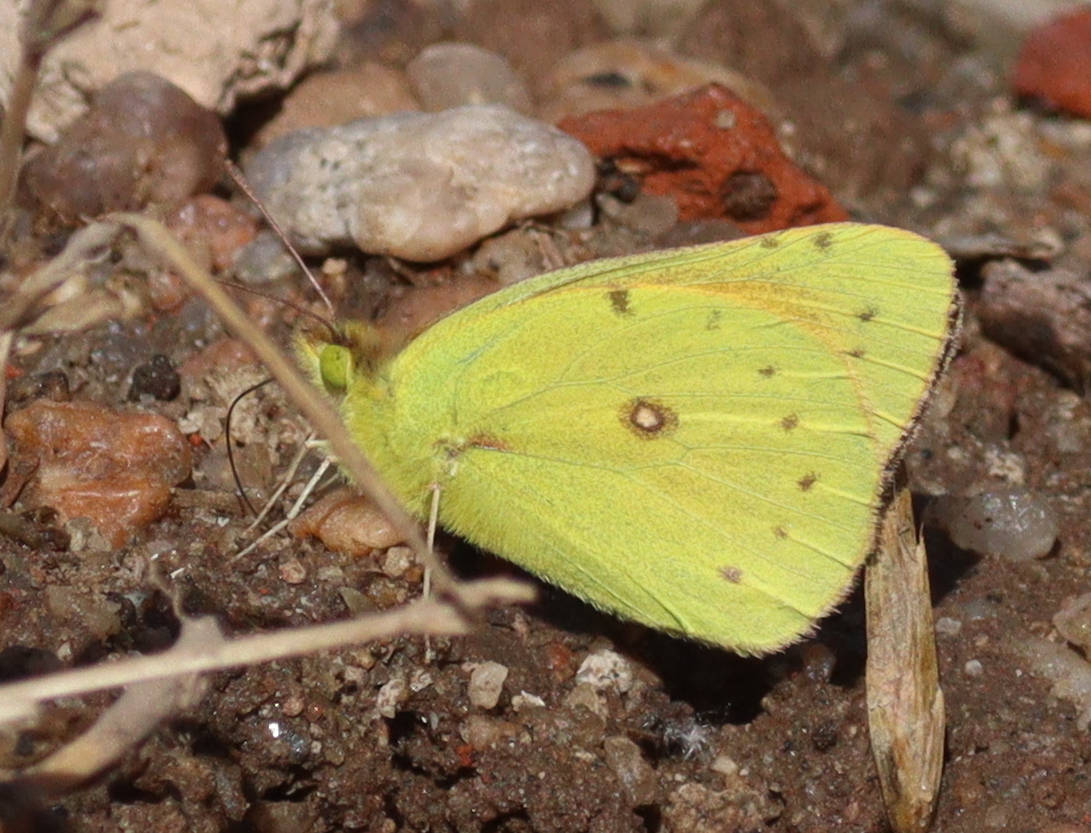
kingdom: Animalia
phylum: Arthropoda
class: Insecta
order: Lepidoptera
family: Pieridae
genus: Colias
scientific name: Colias lesbia
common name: Lesbia clouded yellow
